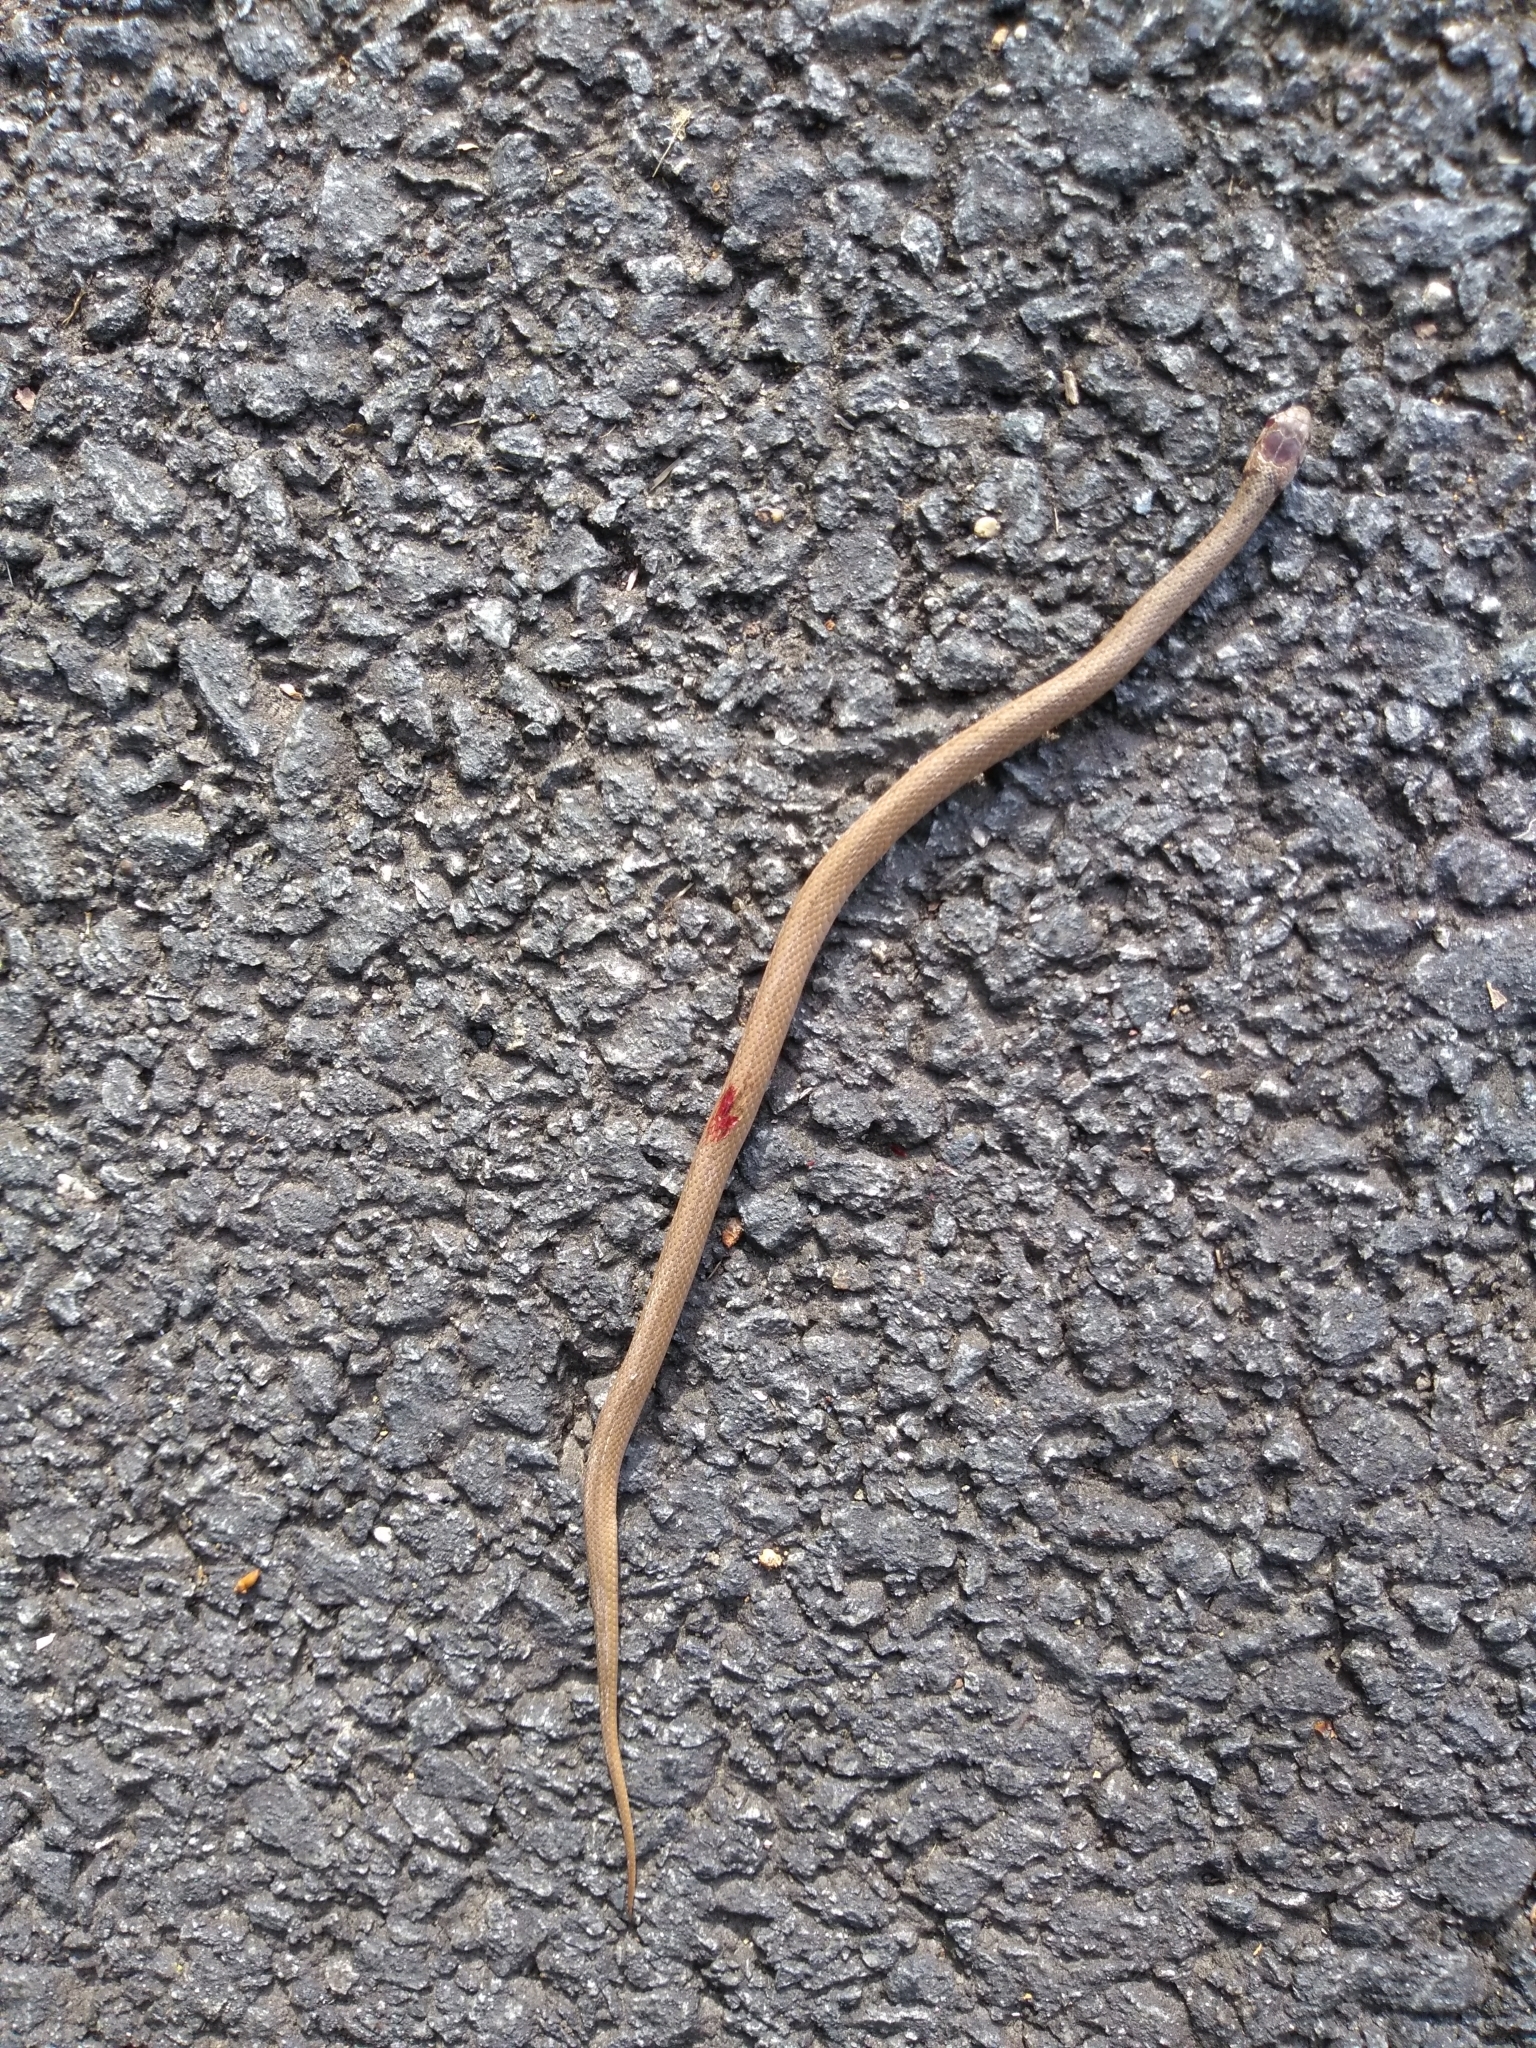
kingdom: Animalia
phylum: Chordata
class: Squamata
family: Colubridae
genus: Storeria
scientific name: Storeria dekayi
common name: (dekay’s) brown snake
